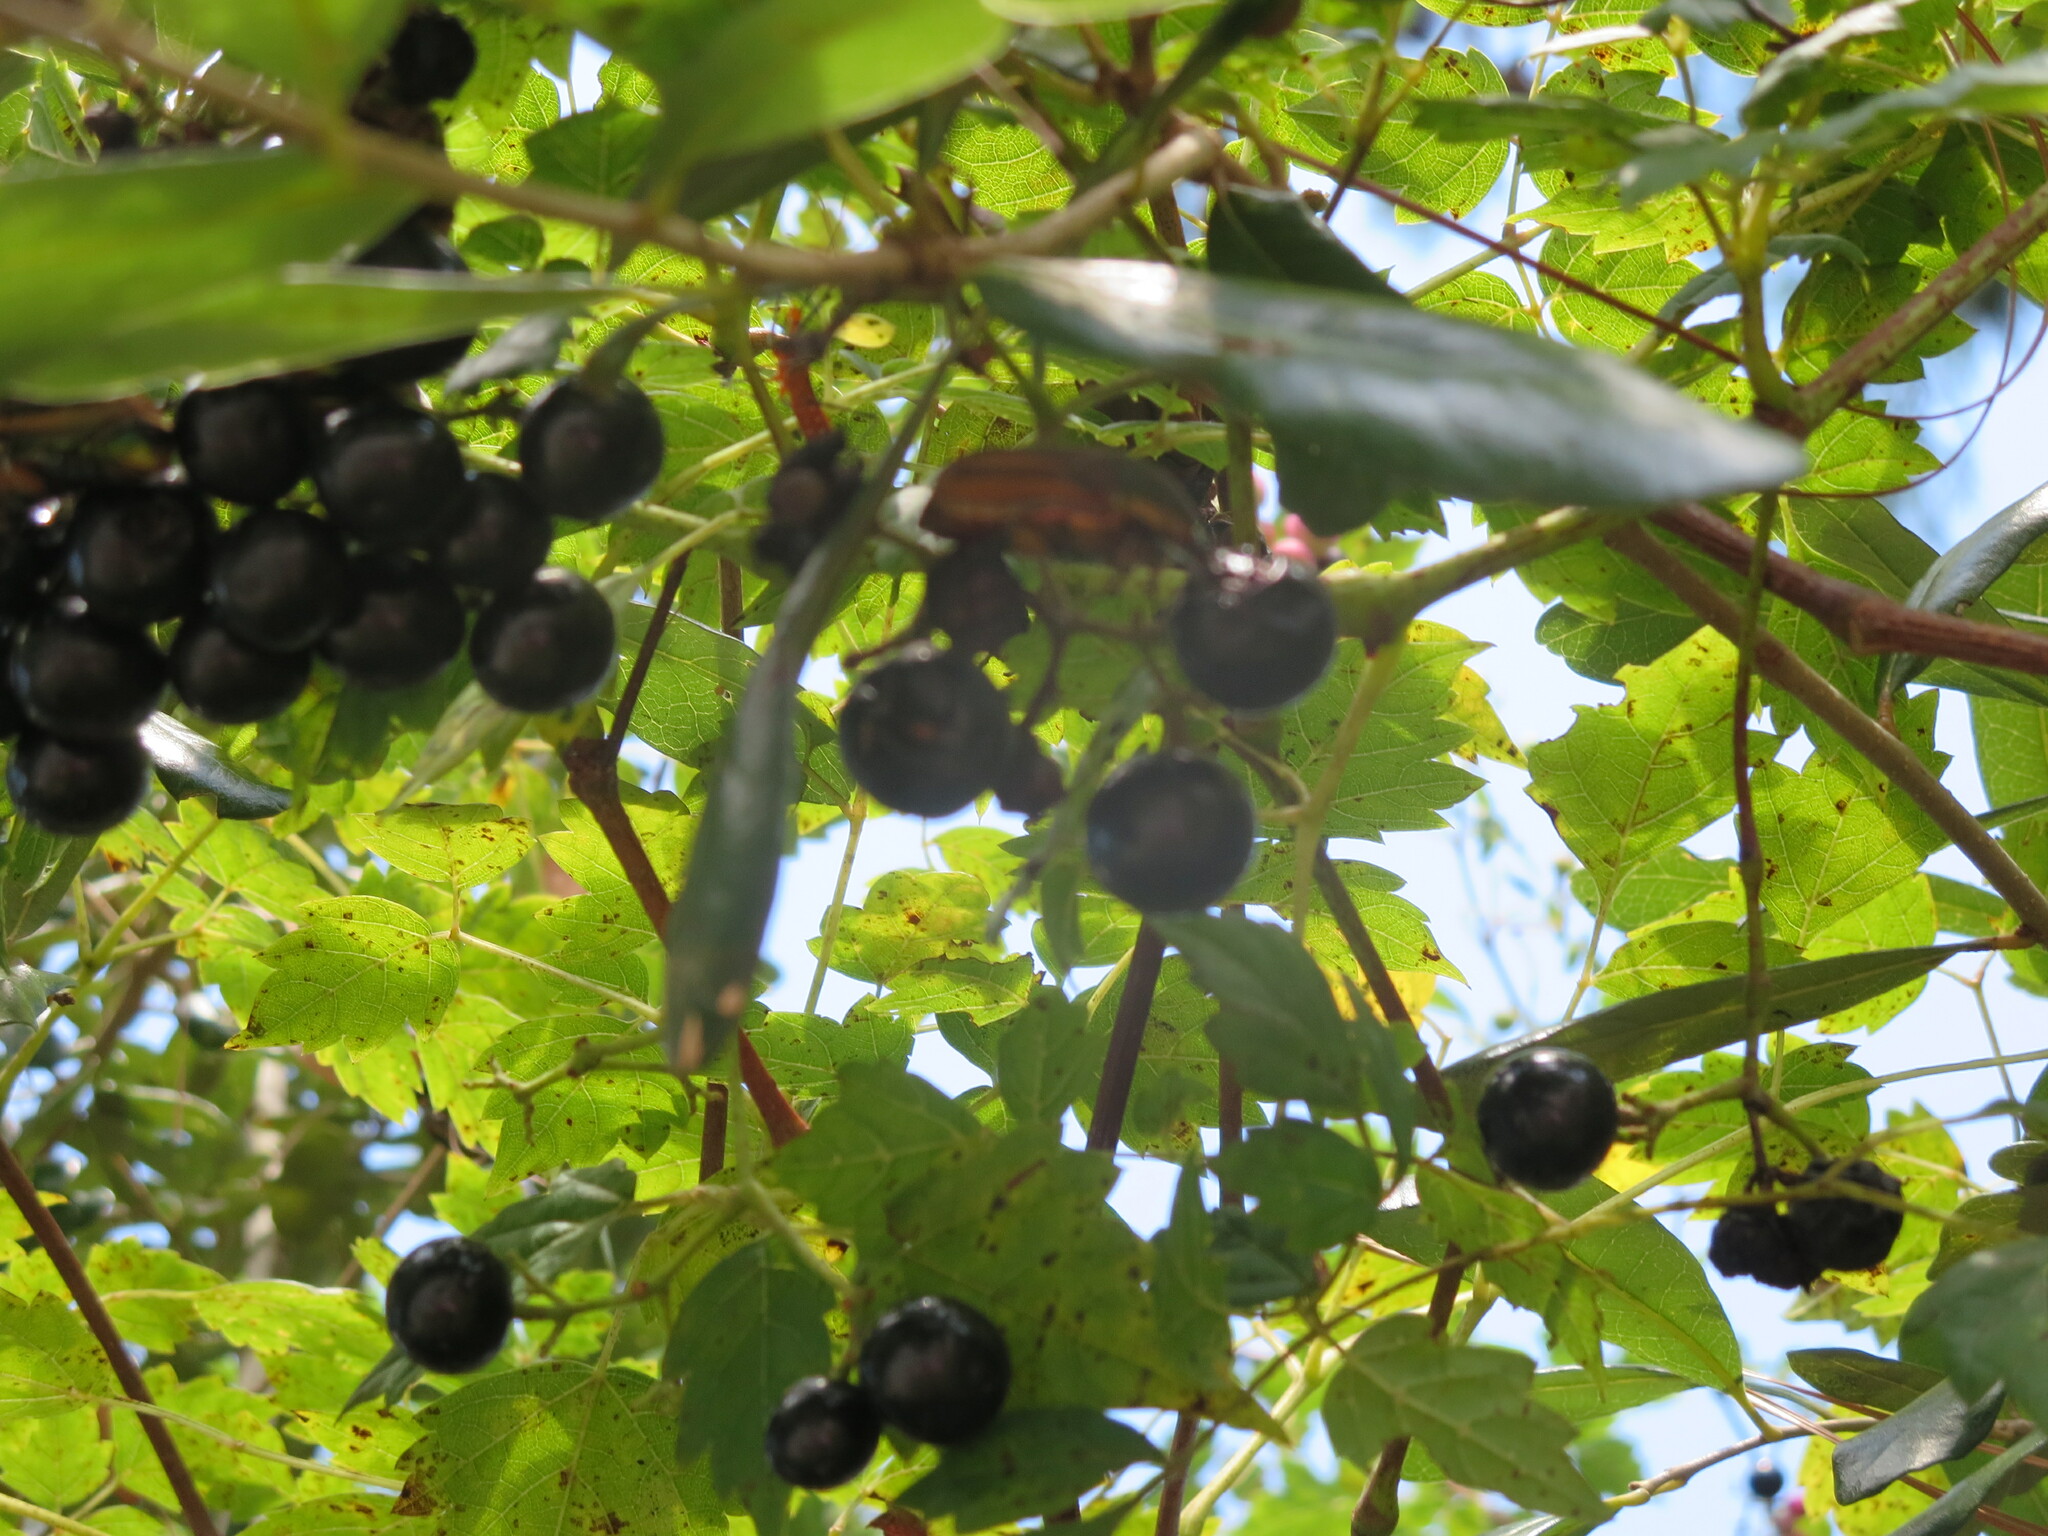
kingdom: Animalia
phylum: Arthropoda
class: Insecta
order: Coleoptera
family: Scarabaeidae
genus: Cotinis
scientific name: Cotinis nitida
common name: Common green june beetle
